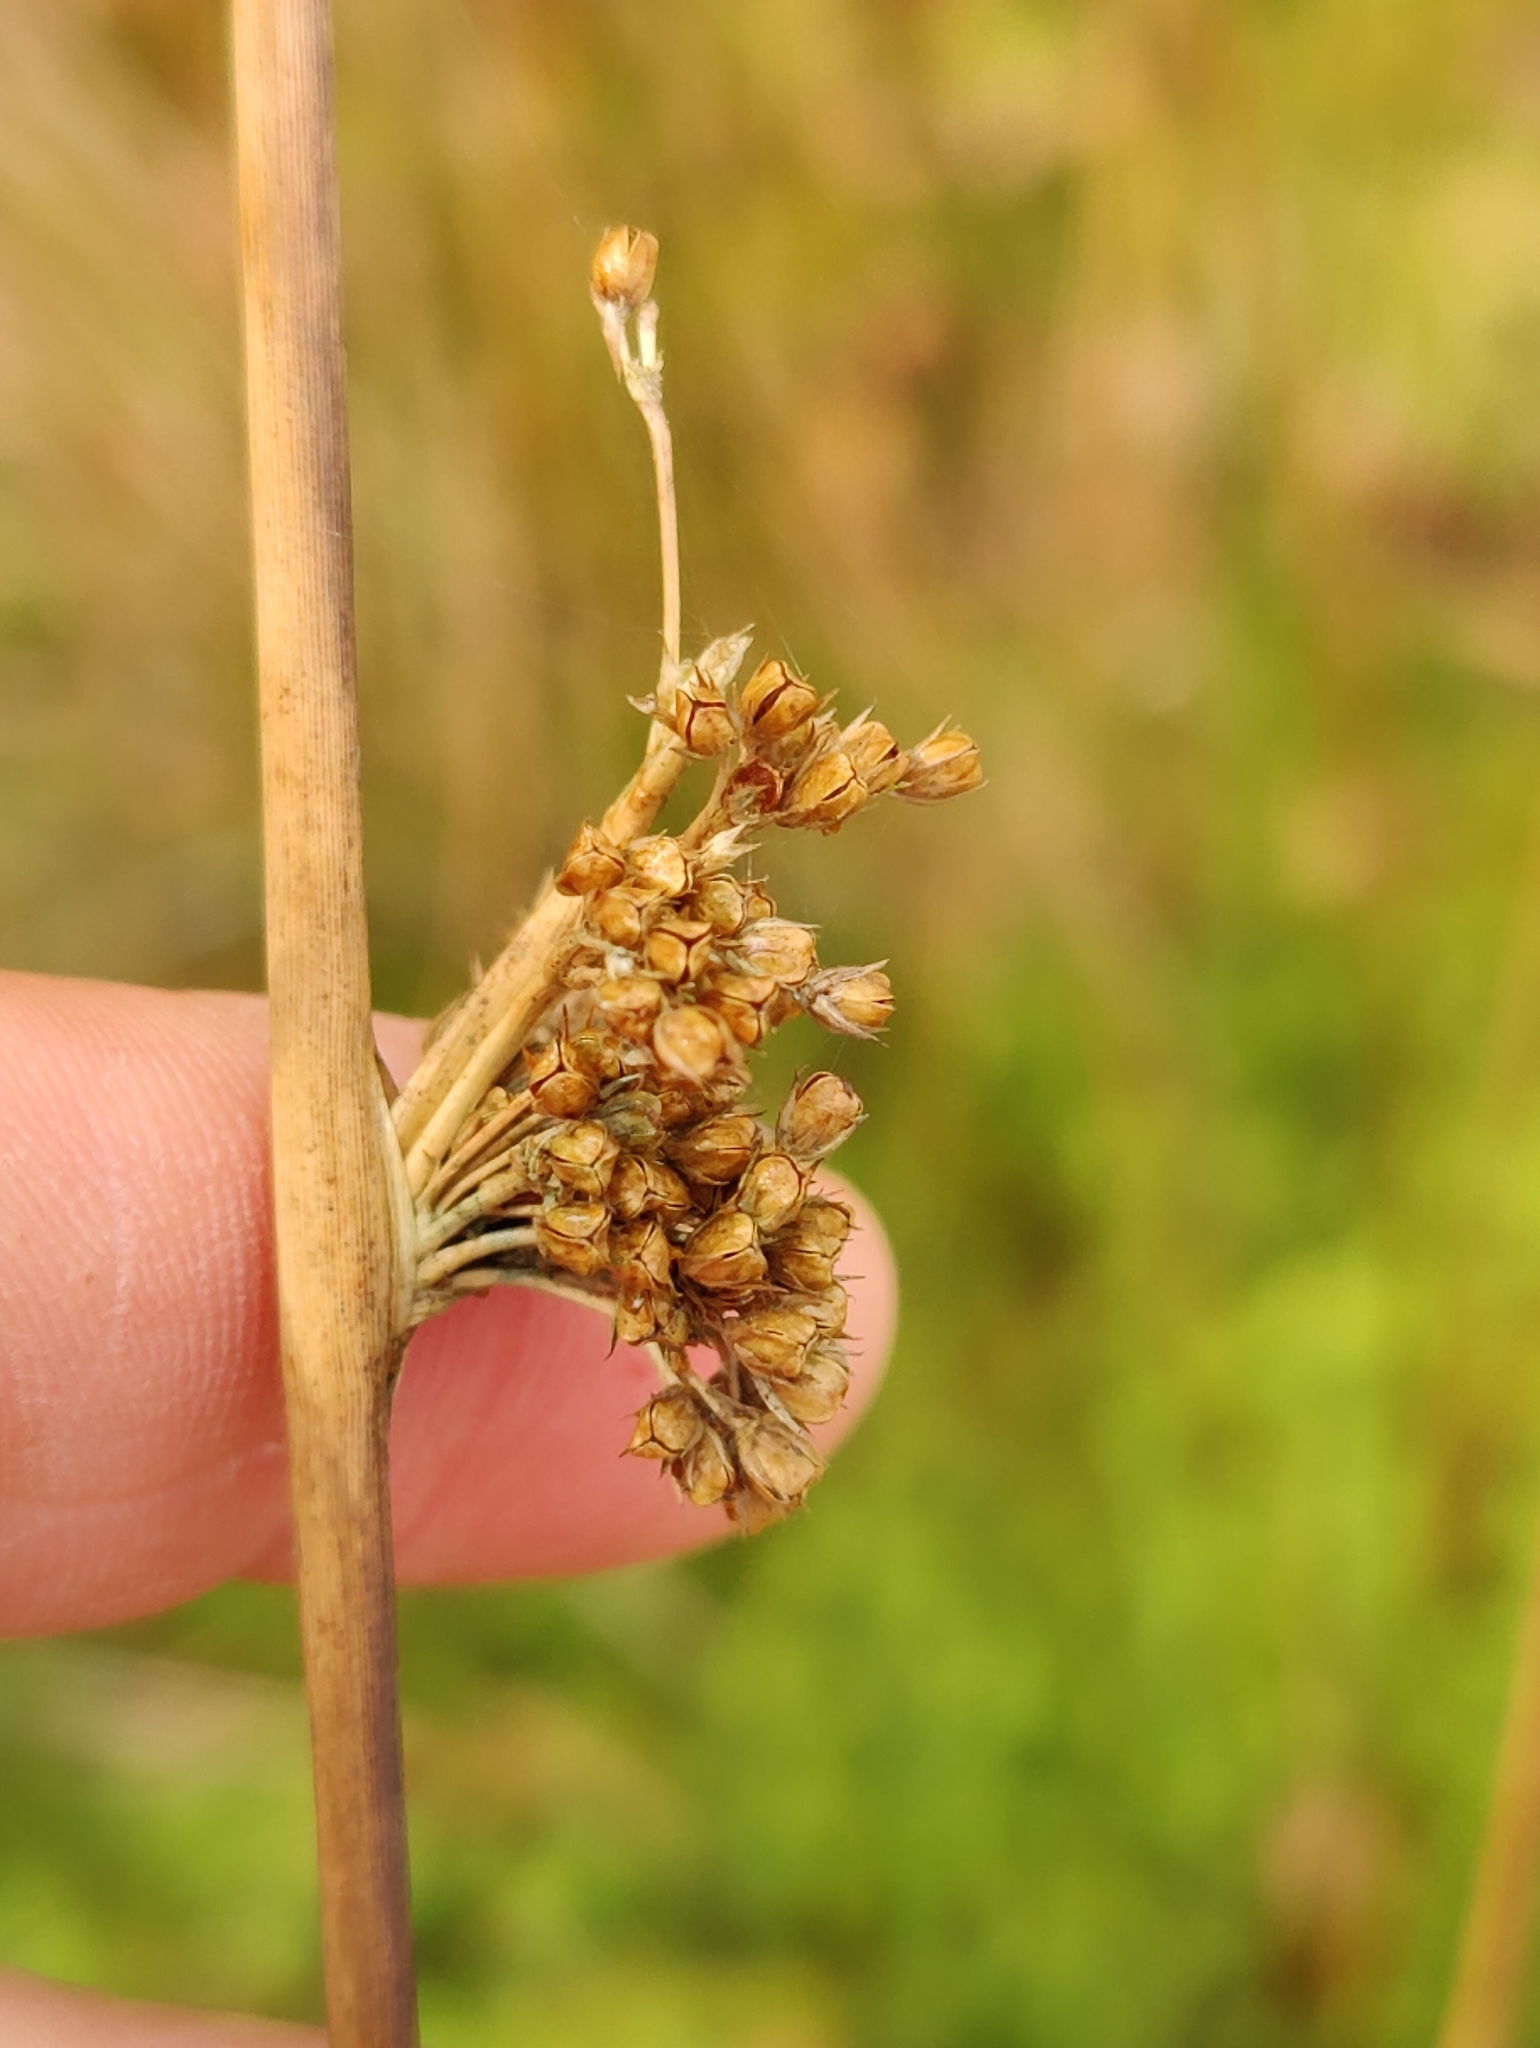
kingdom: Plantae
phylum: Tracheophyta
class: Liliopsida
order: Poales
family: Juncaceae
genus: Juncus
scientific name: Juncus effusus
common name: Soft rush
